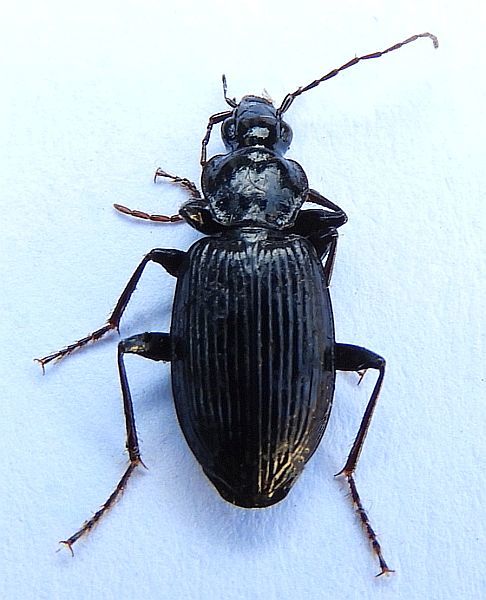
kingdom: Animalia
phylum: Arthropoda
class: Insecta
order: Coleoptera
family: Carabidae
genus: Platynus
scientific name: Platynus decentis
